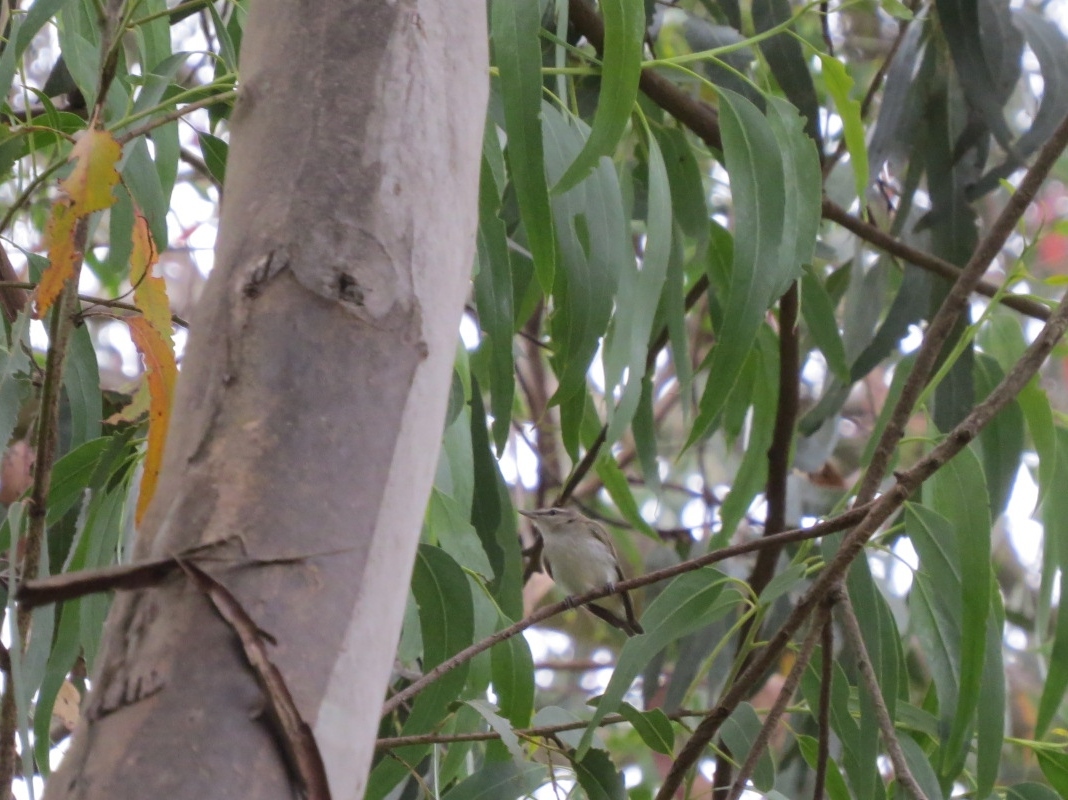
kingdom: Animalia
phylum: Chordata
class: Aves
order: Passeriformes
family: Vireonidae
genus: Vireo
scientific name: Vireo olivaceus
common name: Red-eyed vireo
